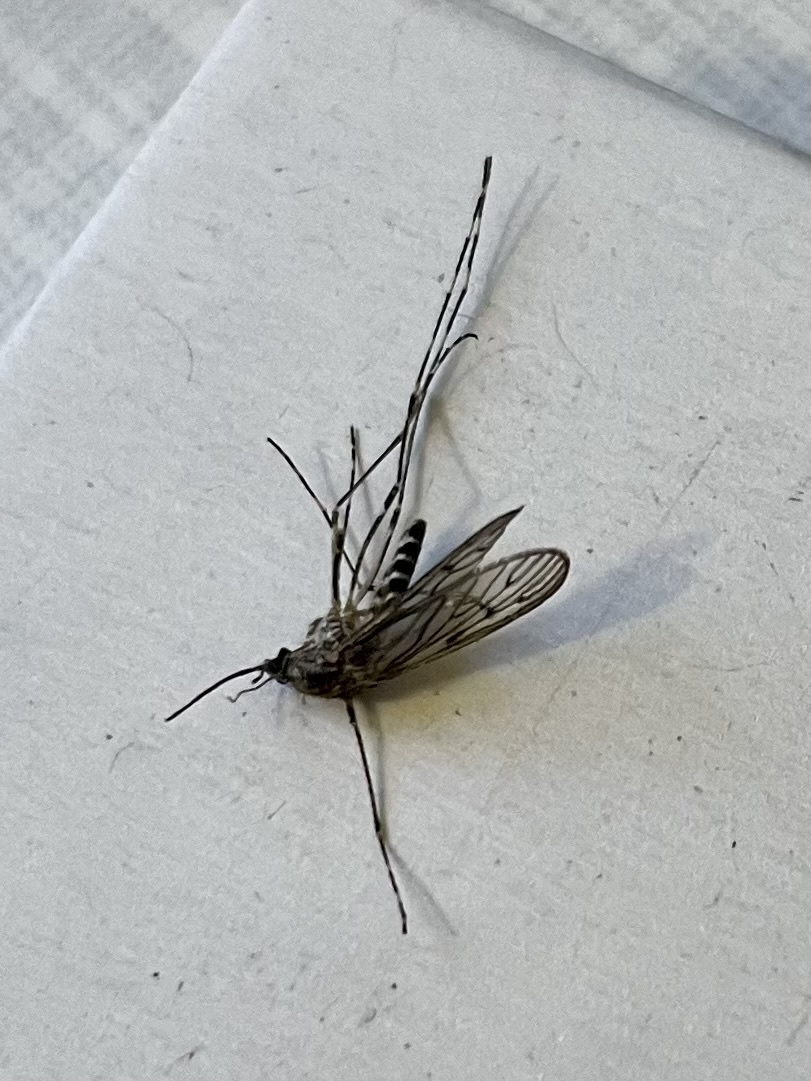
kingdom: Animalia
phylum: Arthropoda
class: Insecta
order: Diptera
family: Culicidae
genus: Culiseta
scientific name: Culiseta annulata
